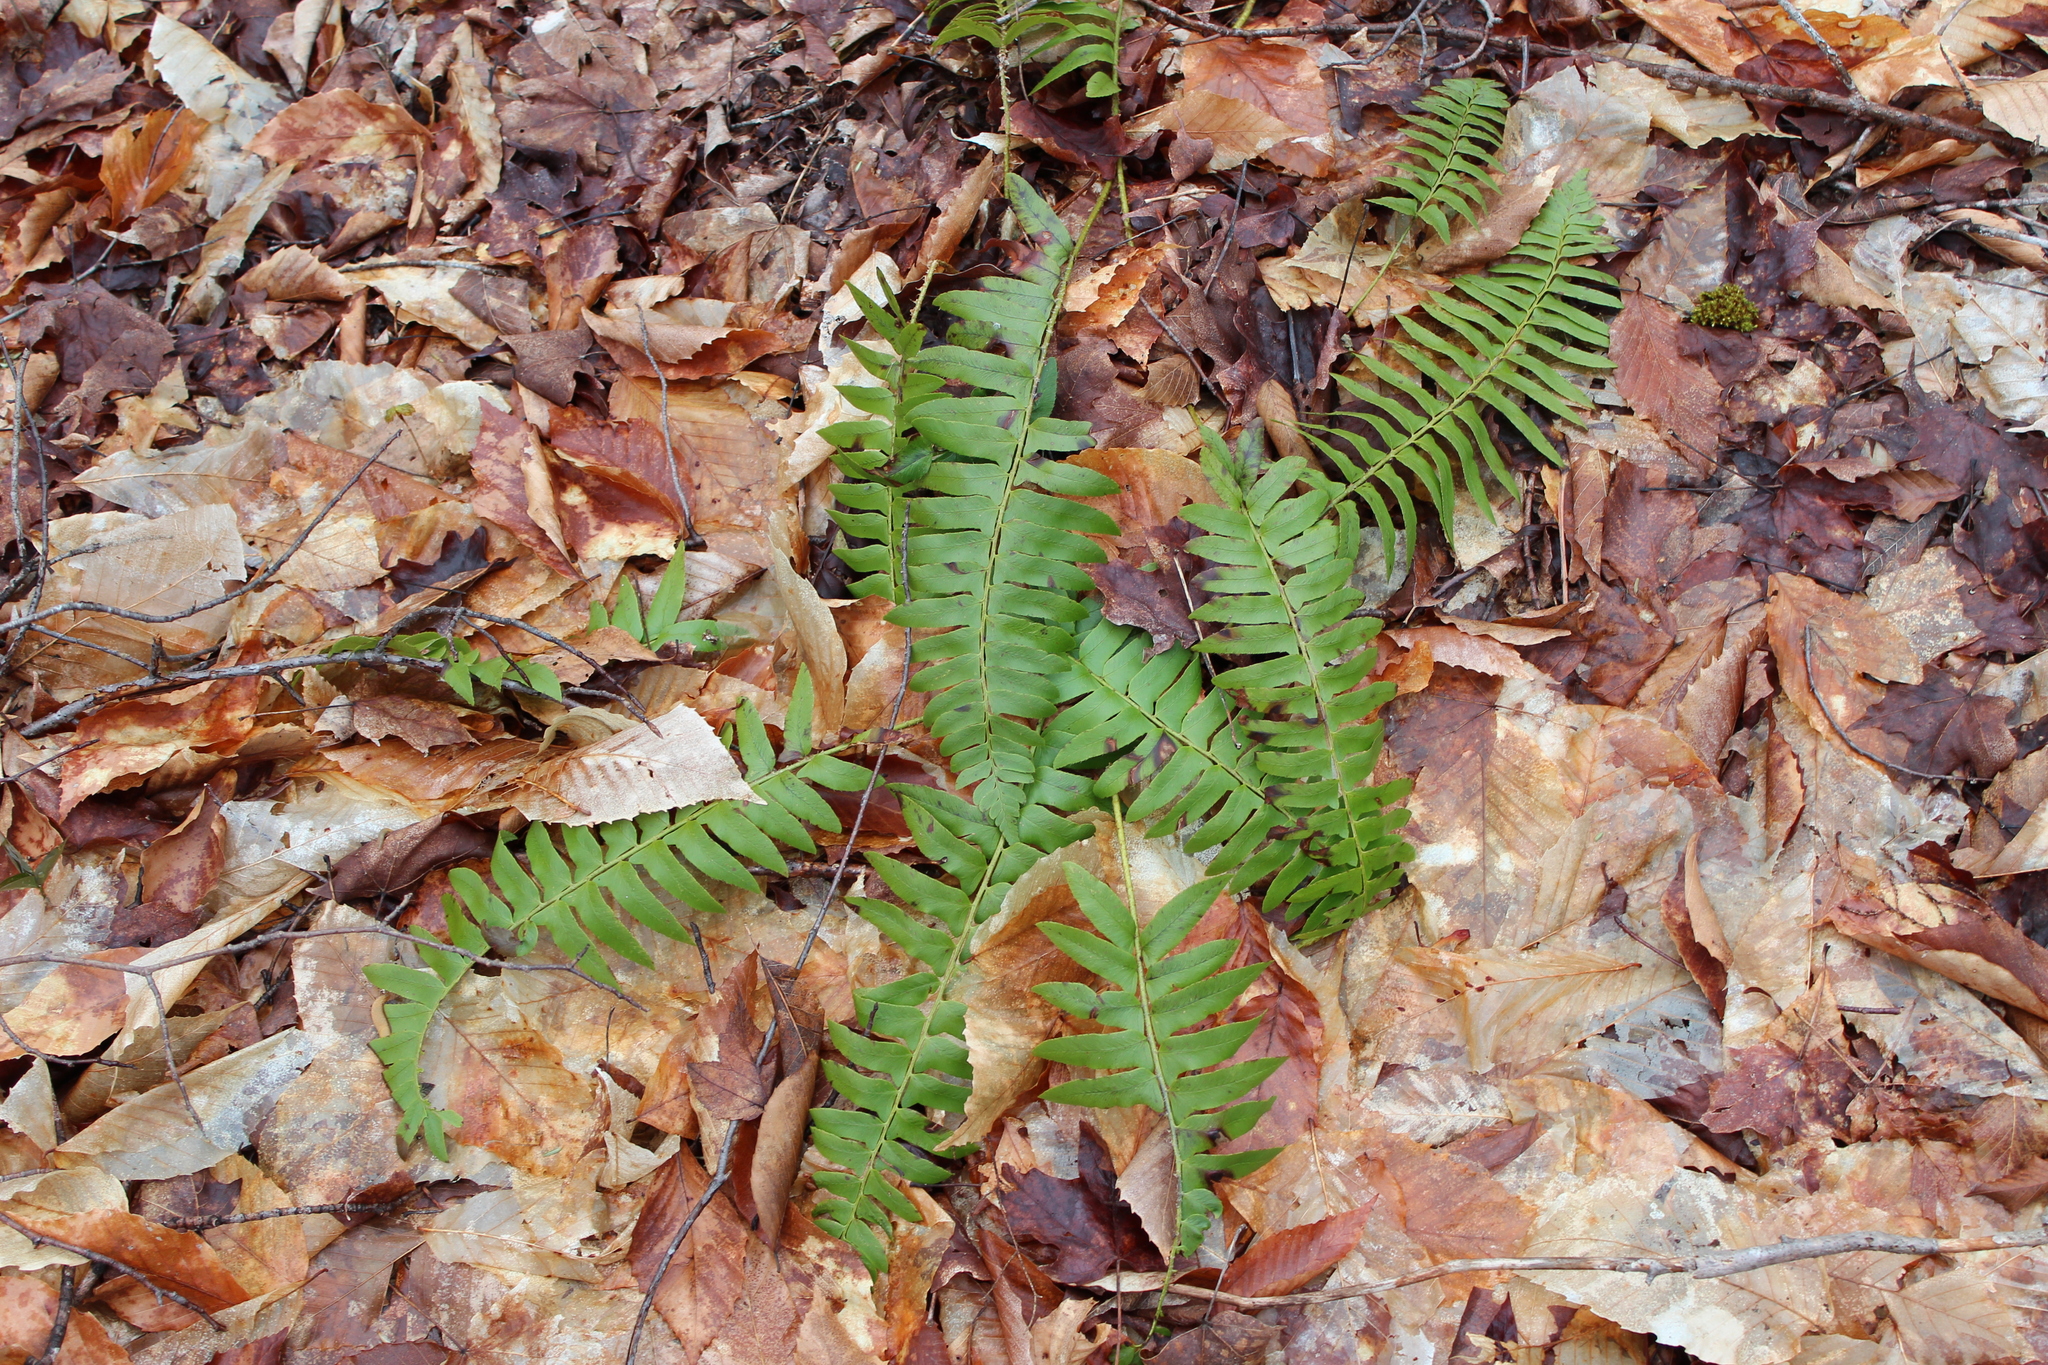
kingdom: Plantae
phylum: Tracheophyta
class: Polypodiopsida
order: Polypodiales
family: Dryopteridaceae
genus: Polystichum
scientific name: Polystichum acrostichoides
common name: Christmas fern
